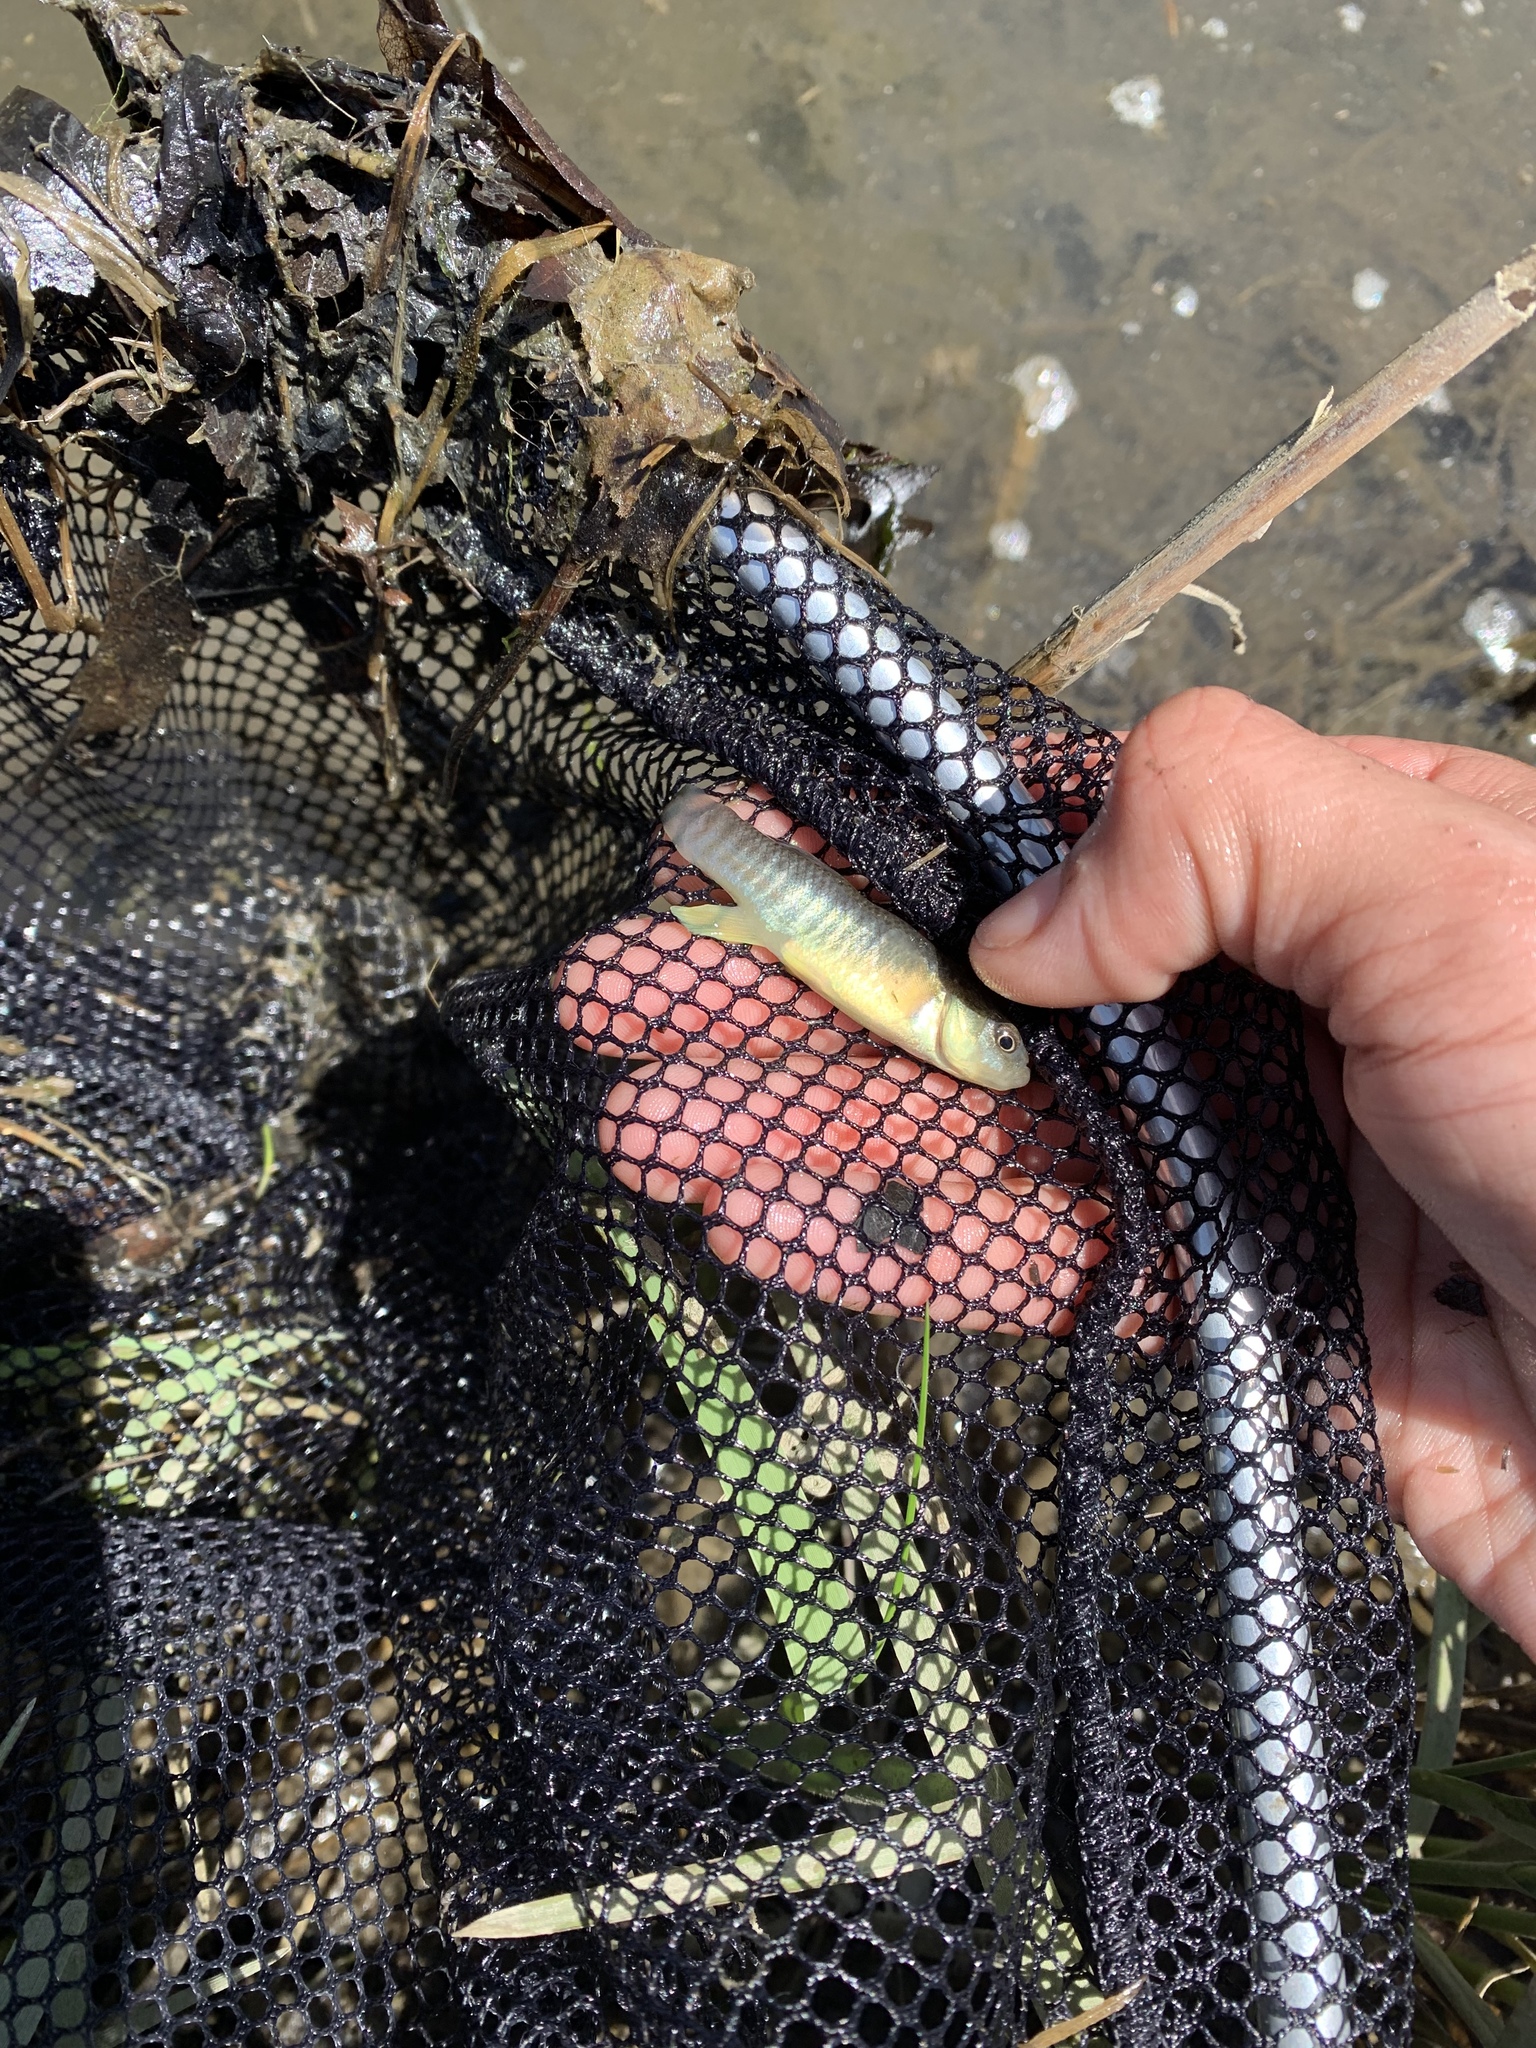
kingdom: Animalia
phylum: Chordata
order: Cyprinodontiformes
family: Fundulidae
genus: Fundulus
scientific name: Fundulus heteroclitus
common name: Mummichog
